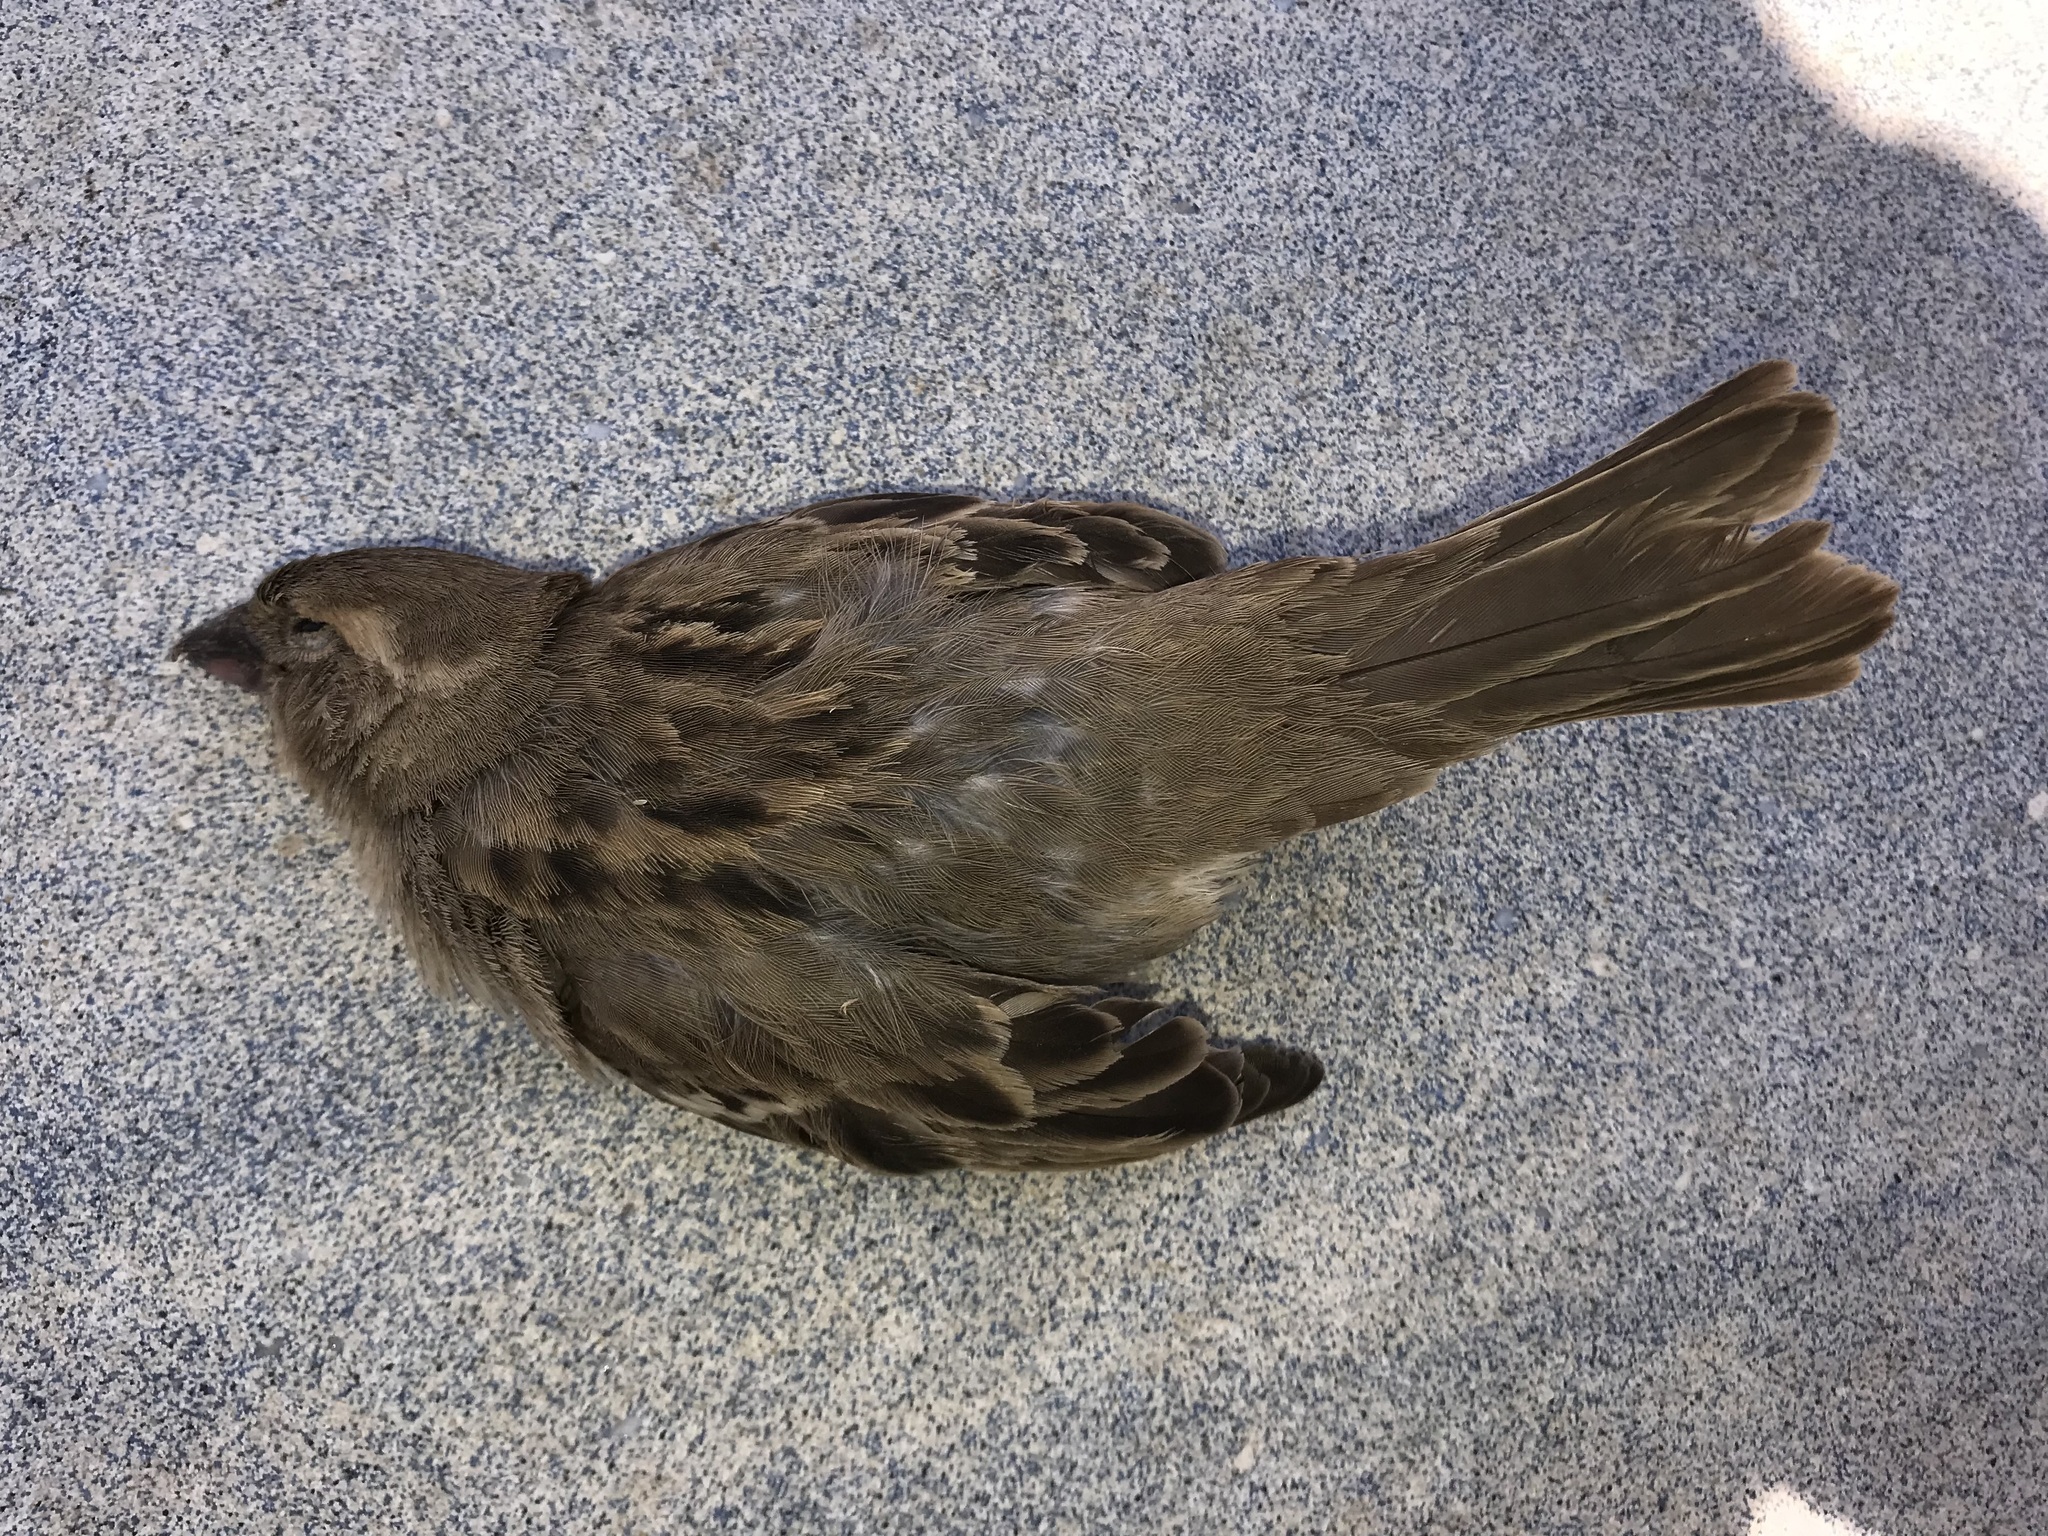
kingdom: Animalia
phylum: Chordata
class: Aves
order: Passeriformes
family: Passeridae
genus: Passer
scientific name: Passer domesticus
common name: House sparrow
